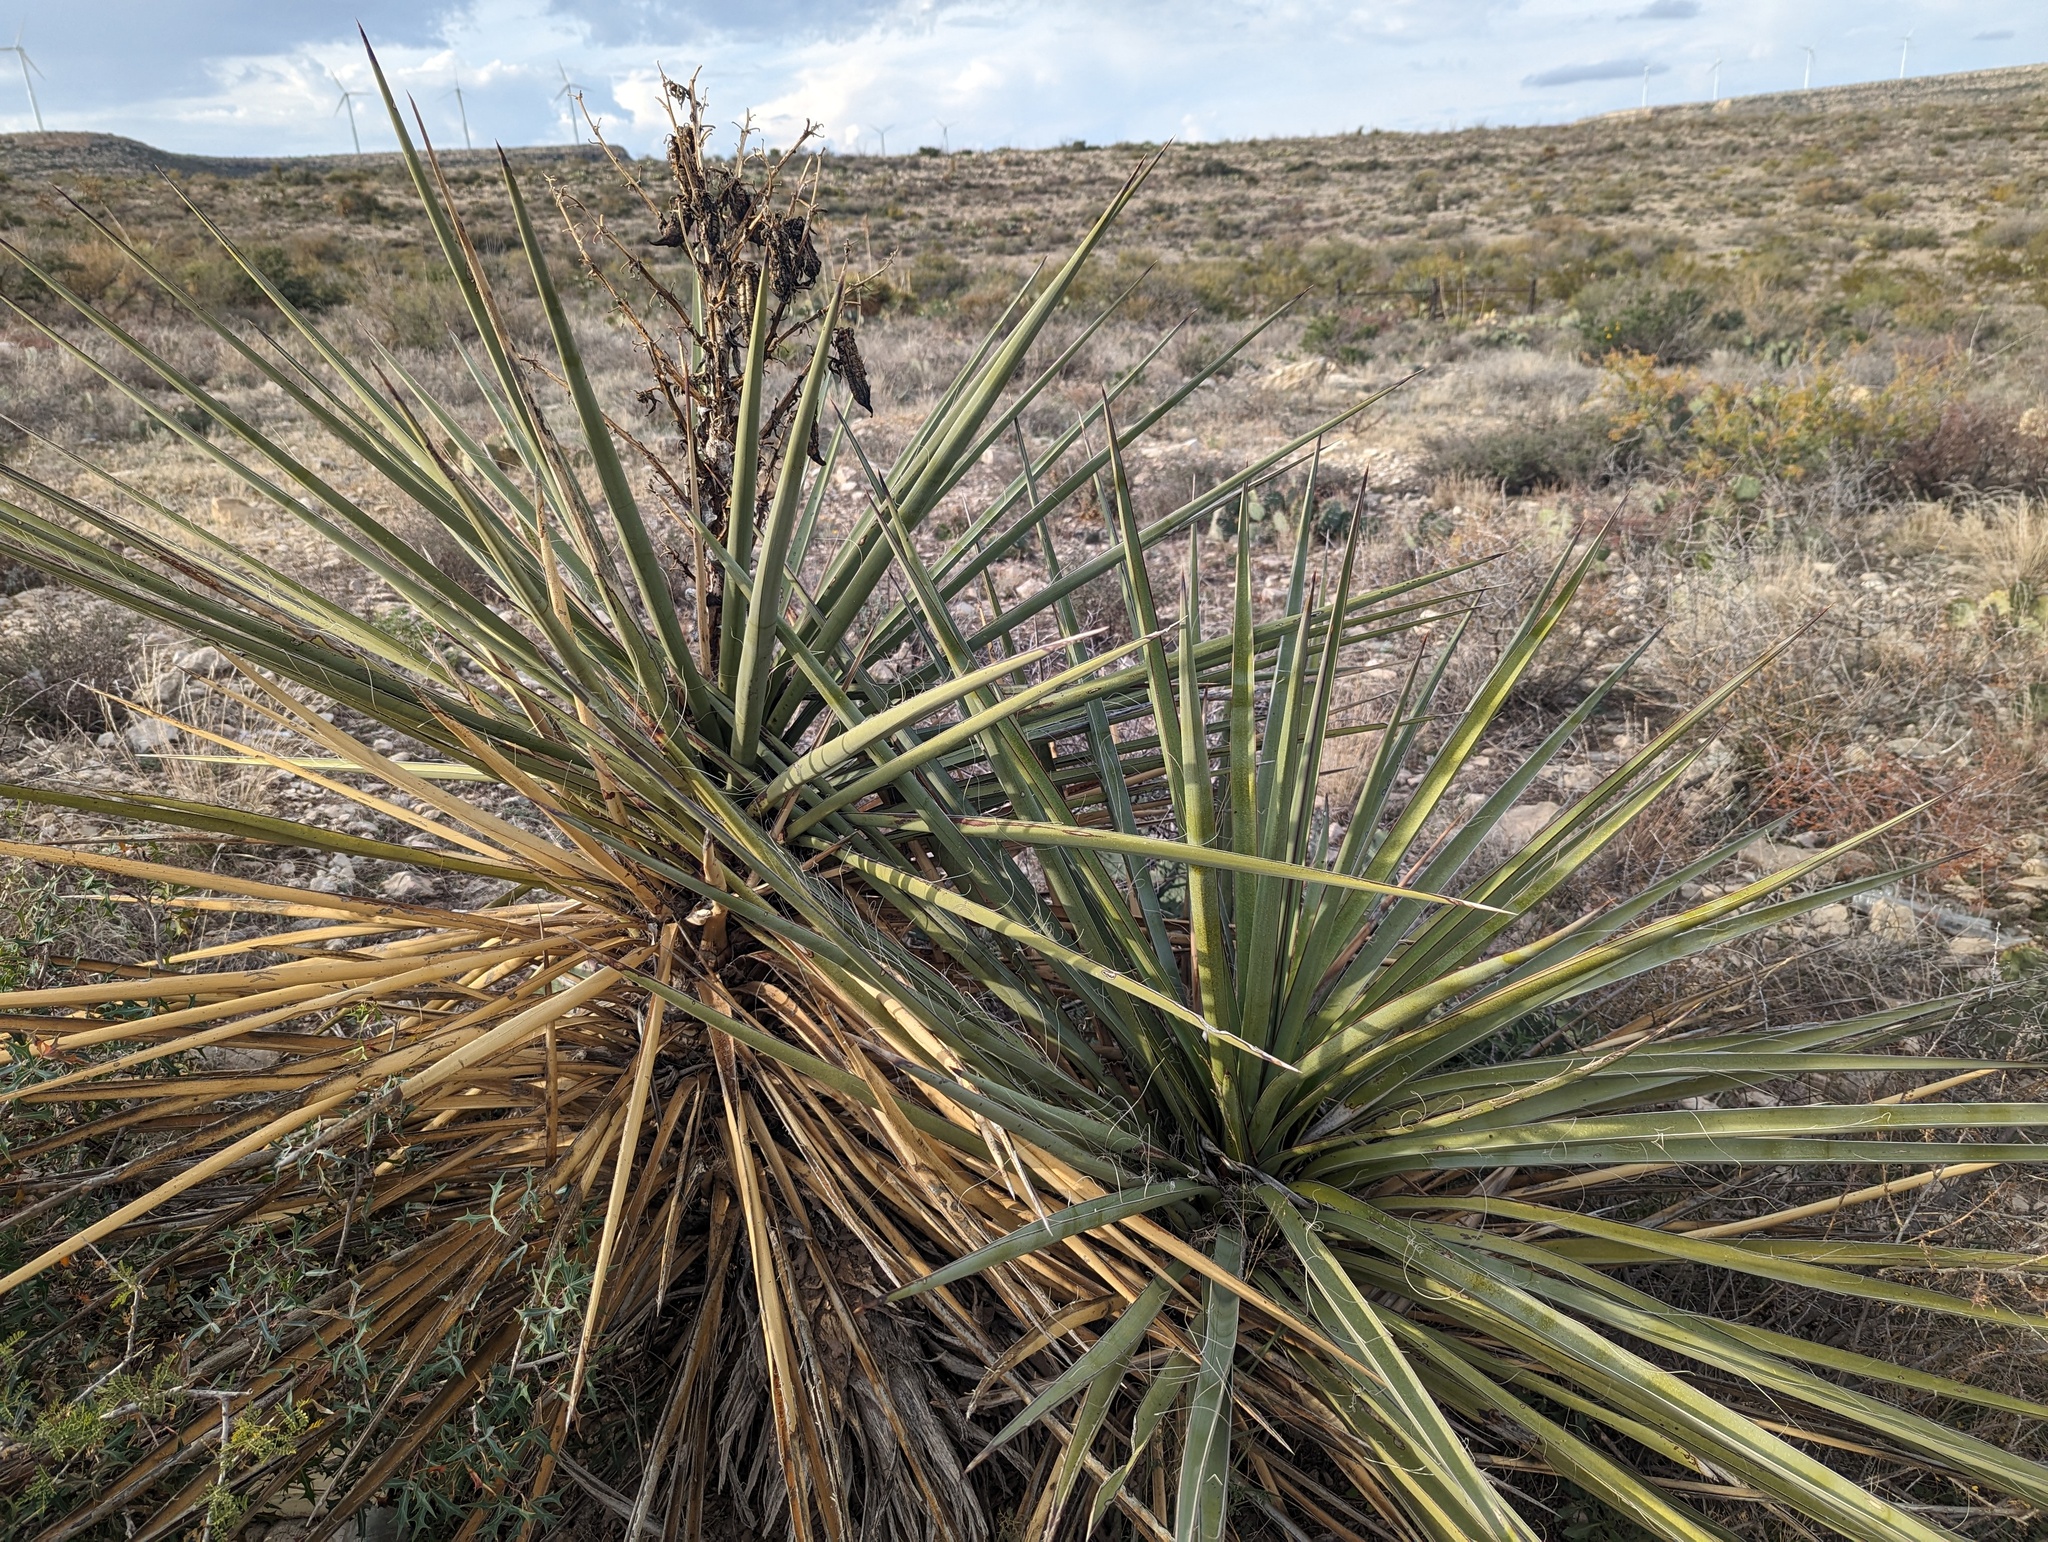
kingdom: Plantae
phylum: Tracheophyta
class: Liliopsida
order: Asparagales
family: Asparagaceae
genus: Yucca
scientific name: Yucca treculiana
